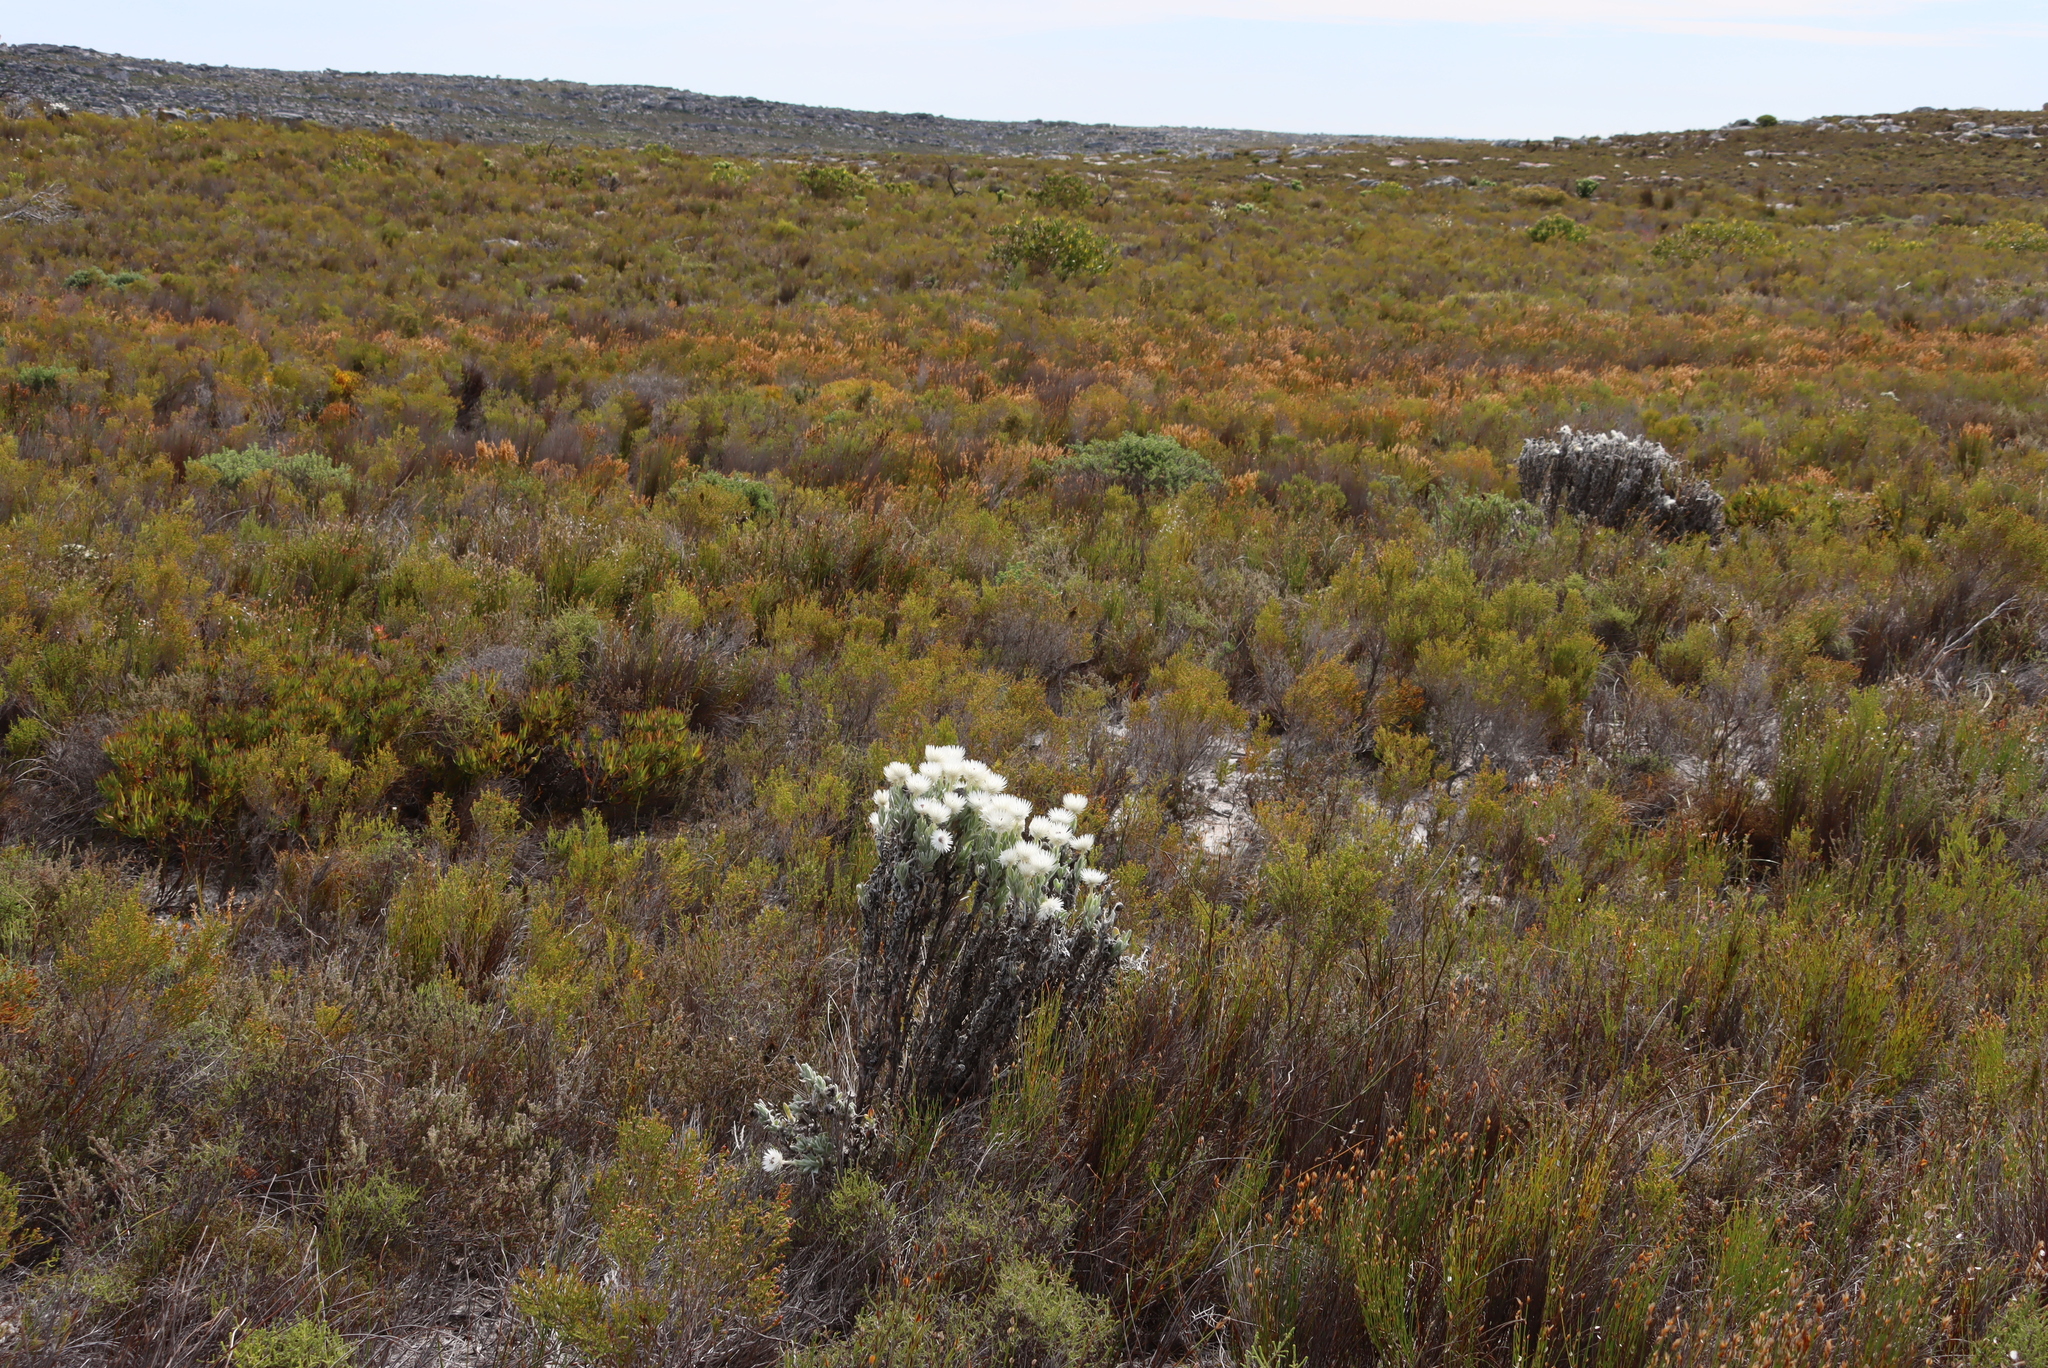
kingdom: Plantae
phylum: Tracheophyta
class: Magnoliopsida
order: Asterales
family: Asteraceae
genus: Syncarpha
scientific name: Syncarpha vestita
